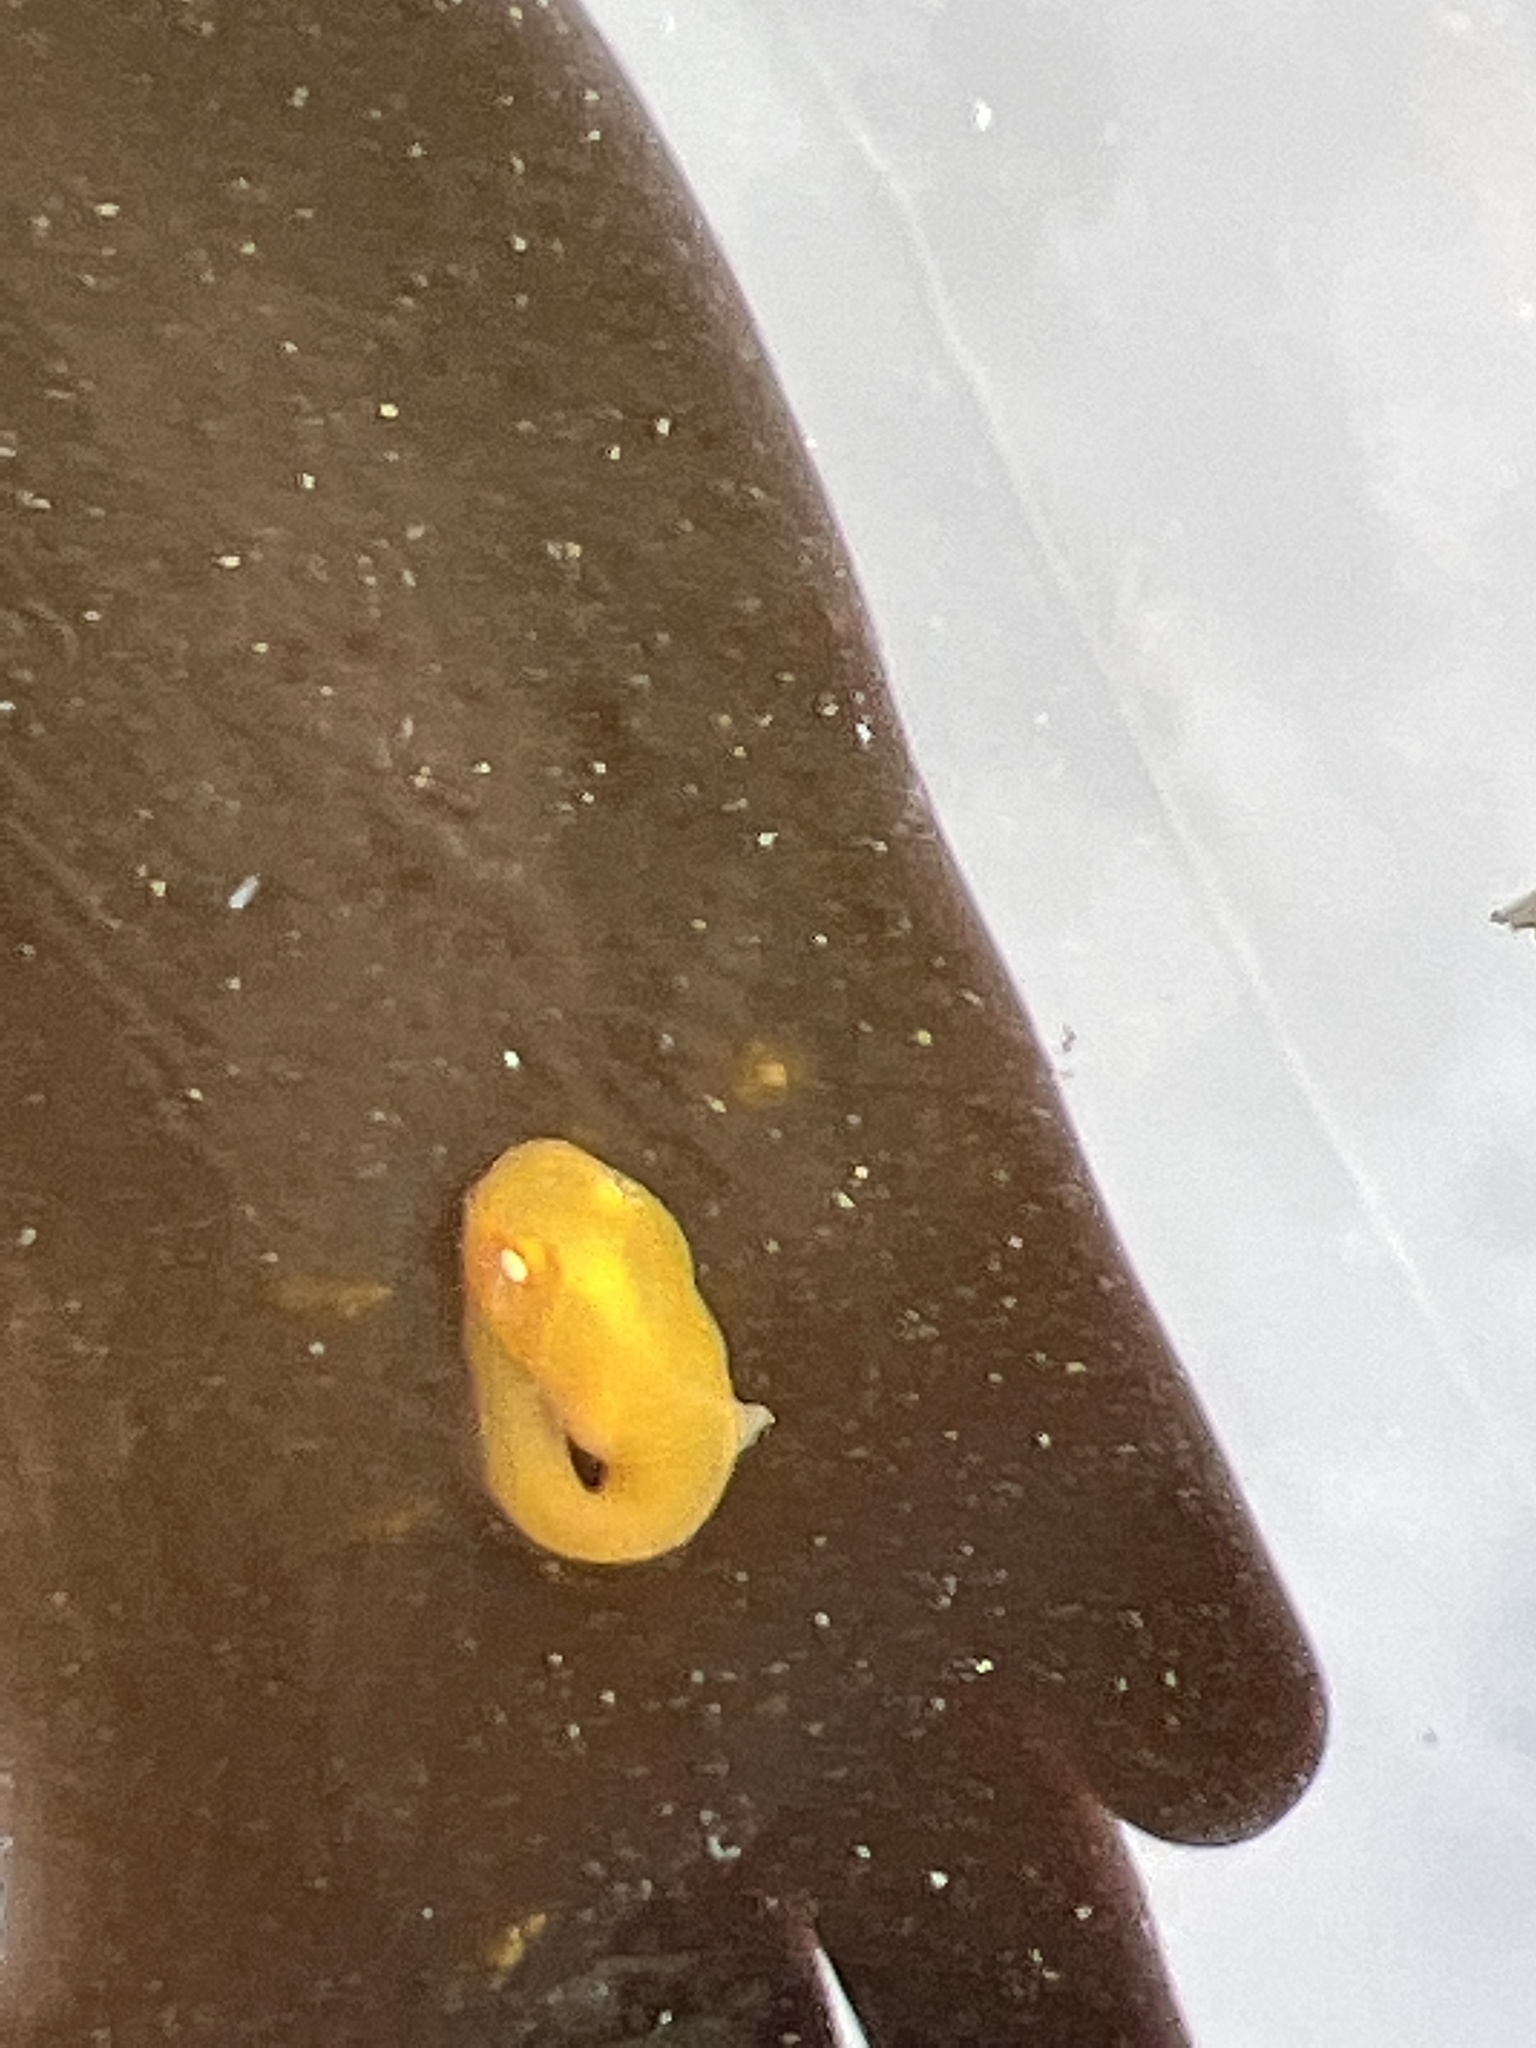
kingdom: Animalia
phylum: Chordata
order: Scorpaeniformes
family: Liparidae
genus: Liparis
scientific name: Liparis florae
